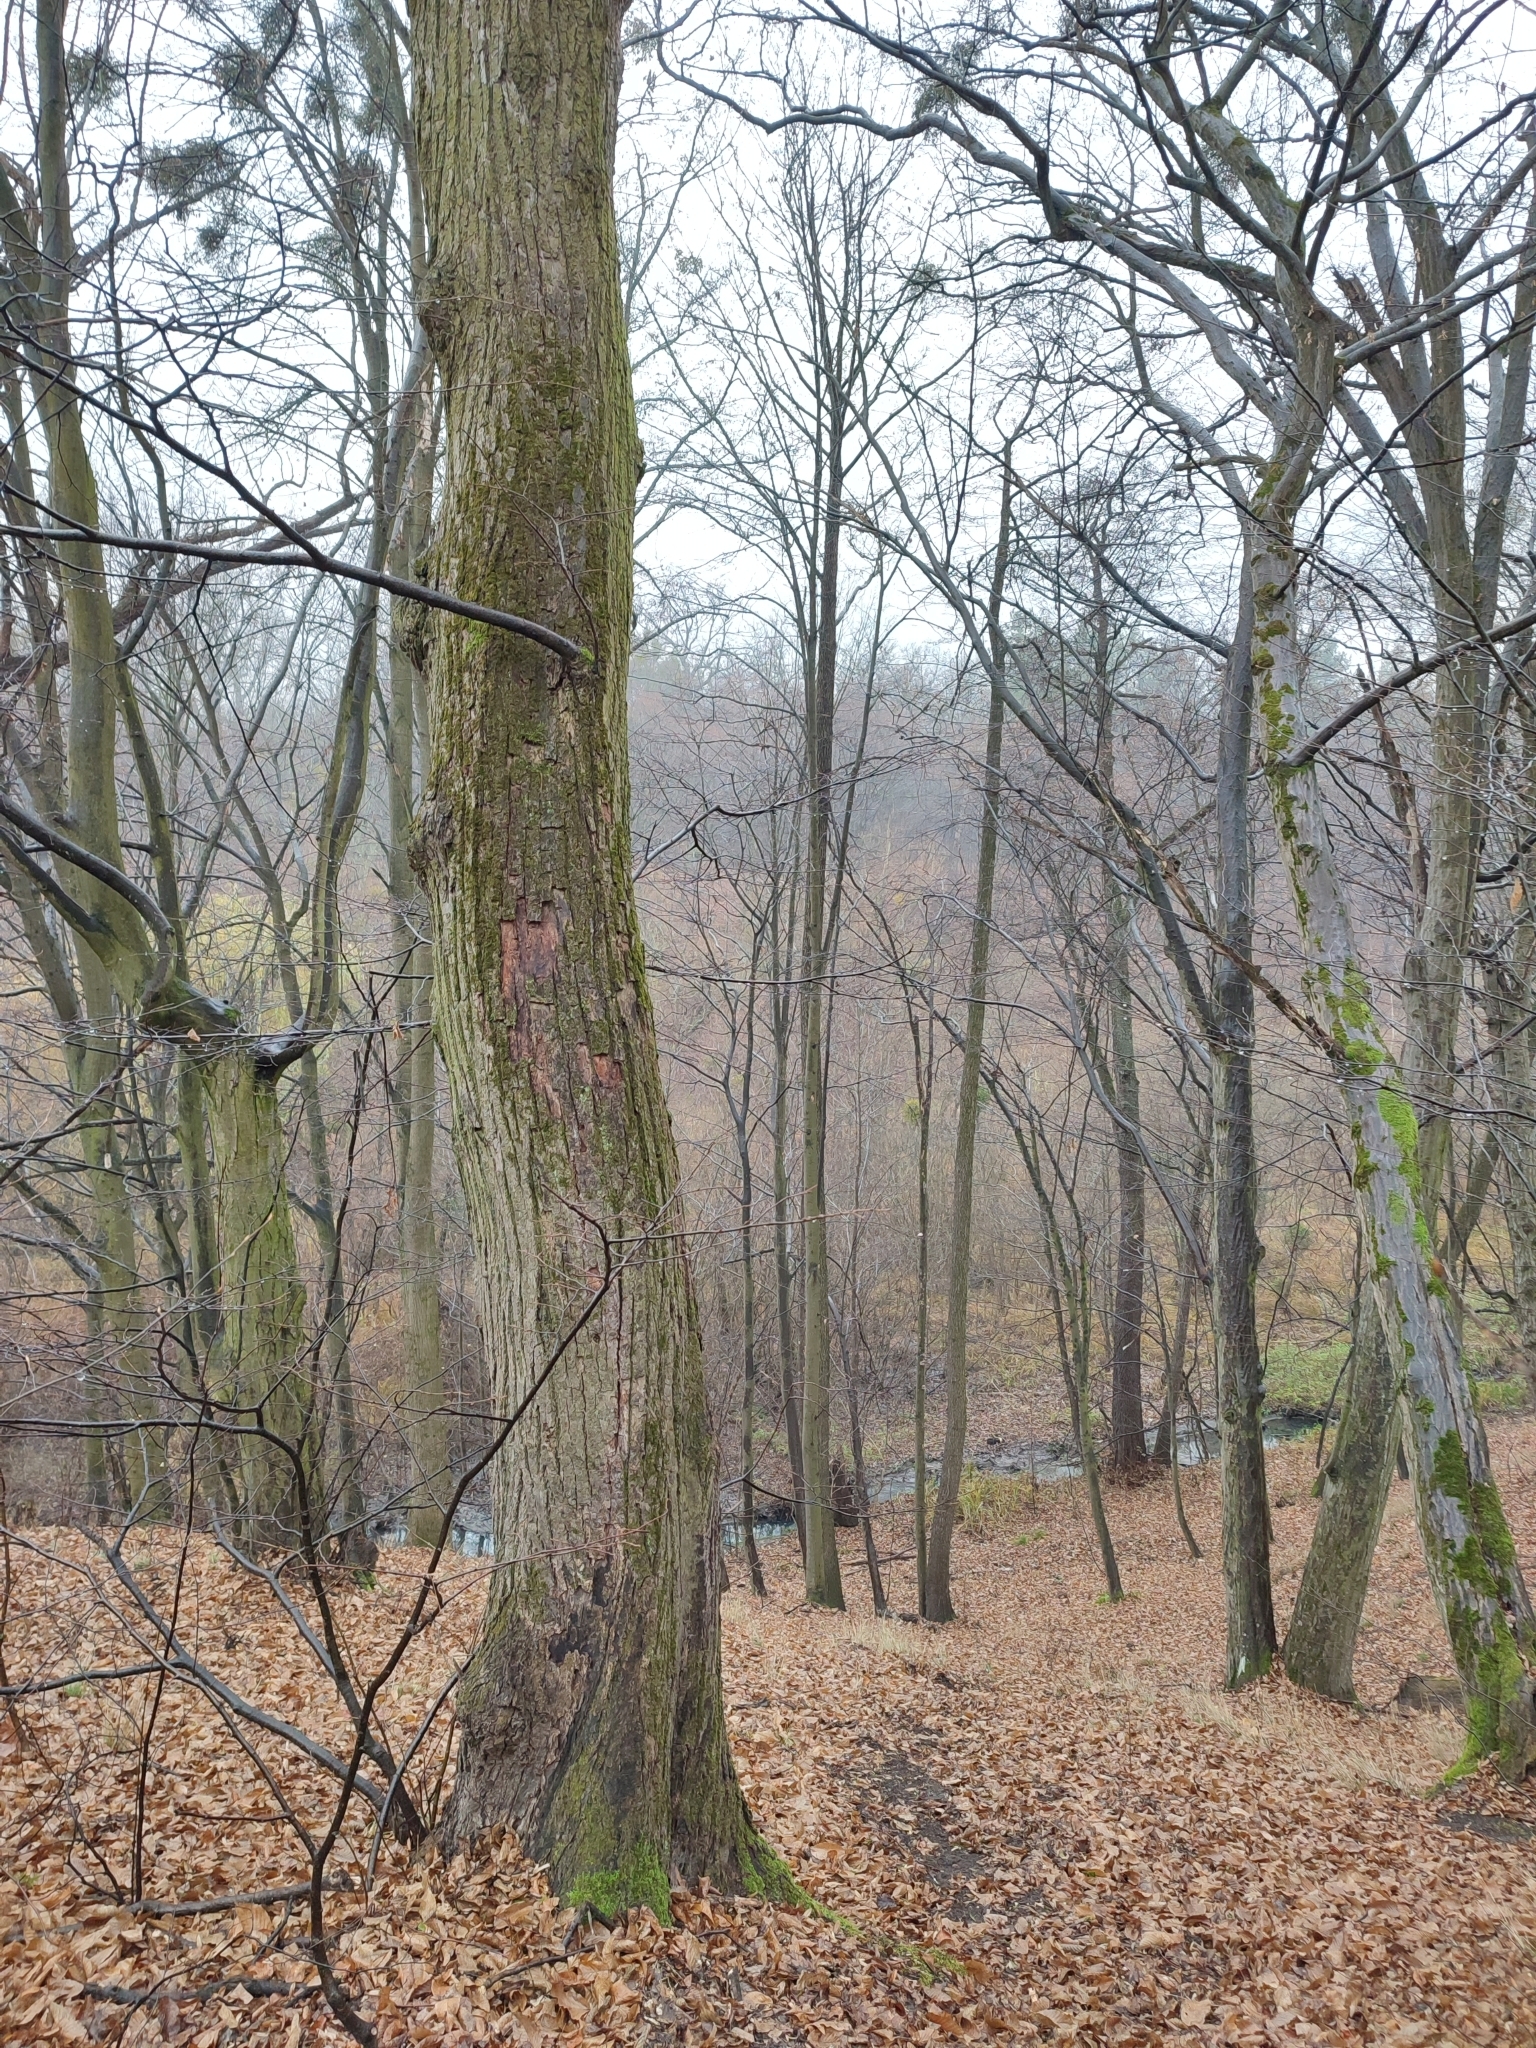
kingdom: Plantae
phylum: Tracheophyta
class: Magnoliopsida
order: Fagales
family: Betulaceae
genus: Carpinus
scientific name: Carpinus betulus
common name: Hornbeam
